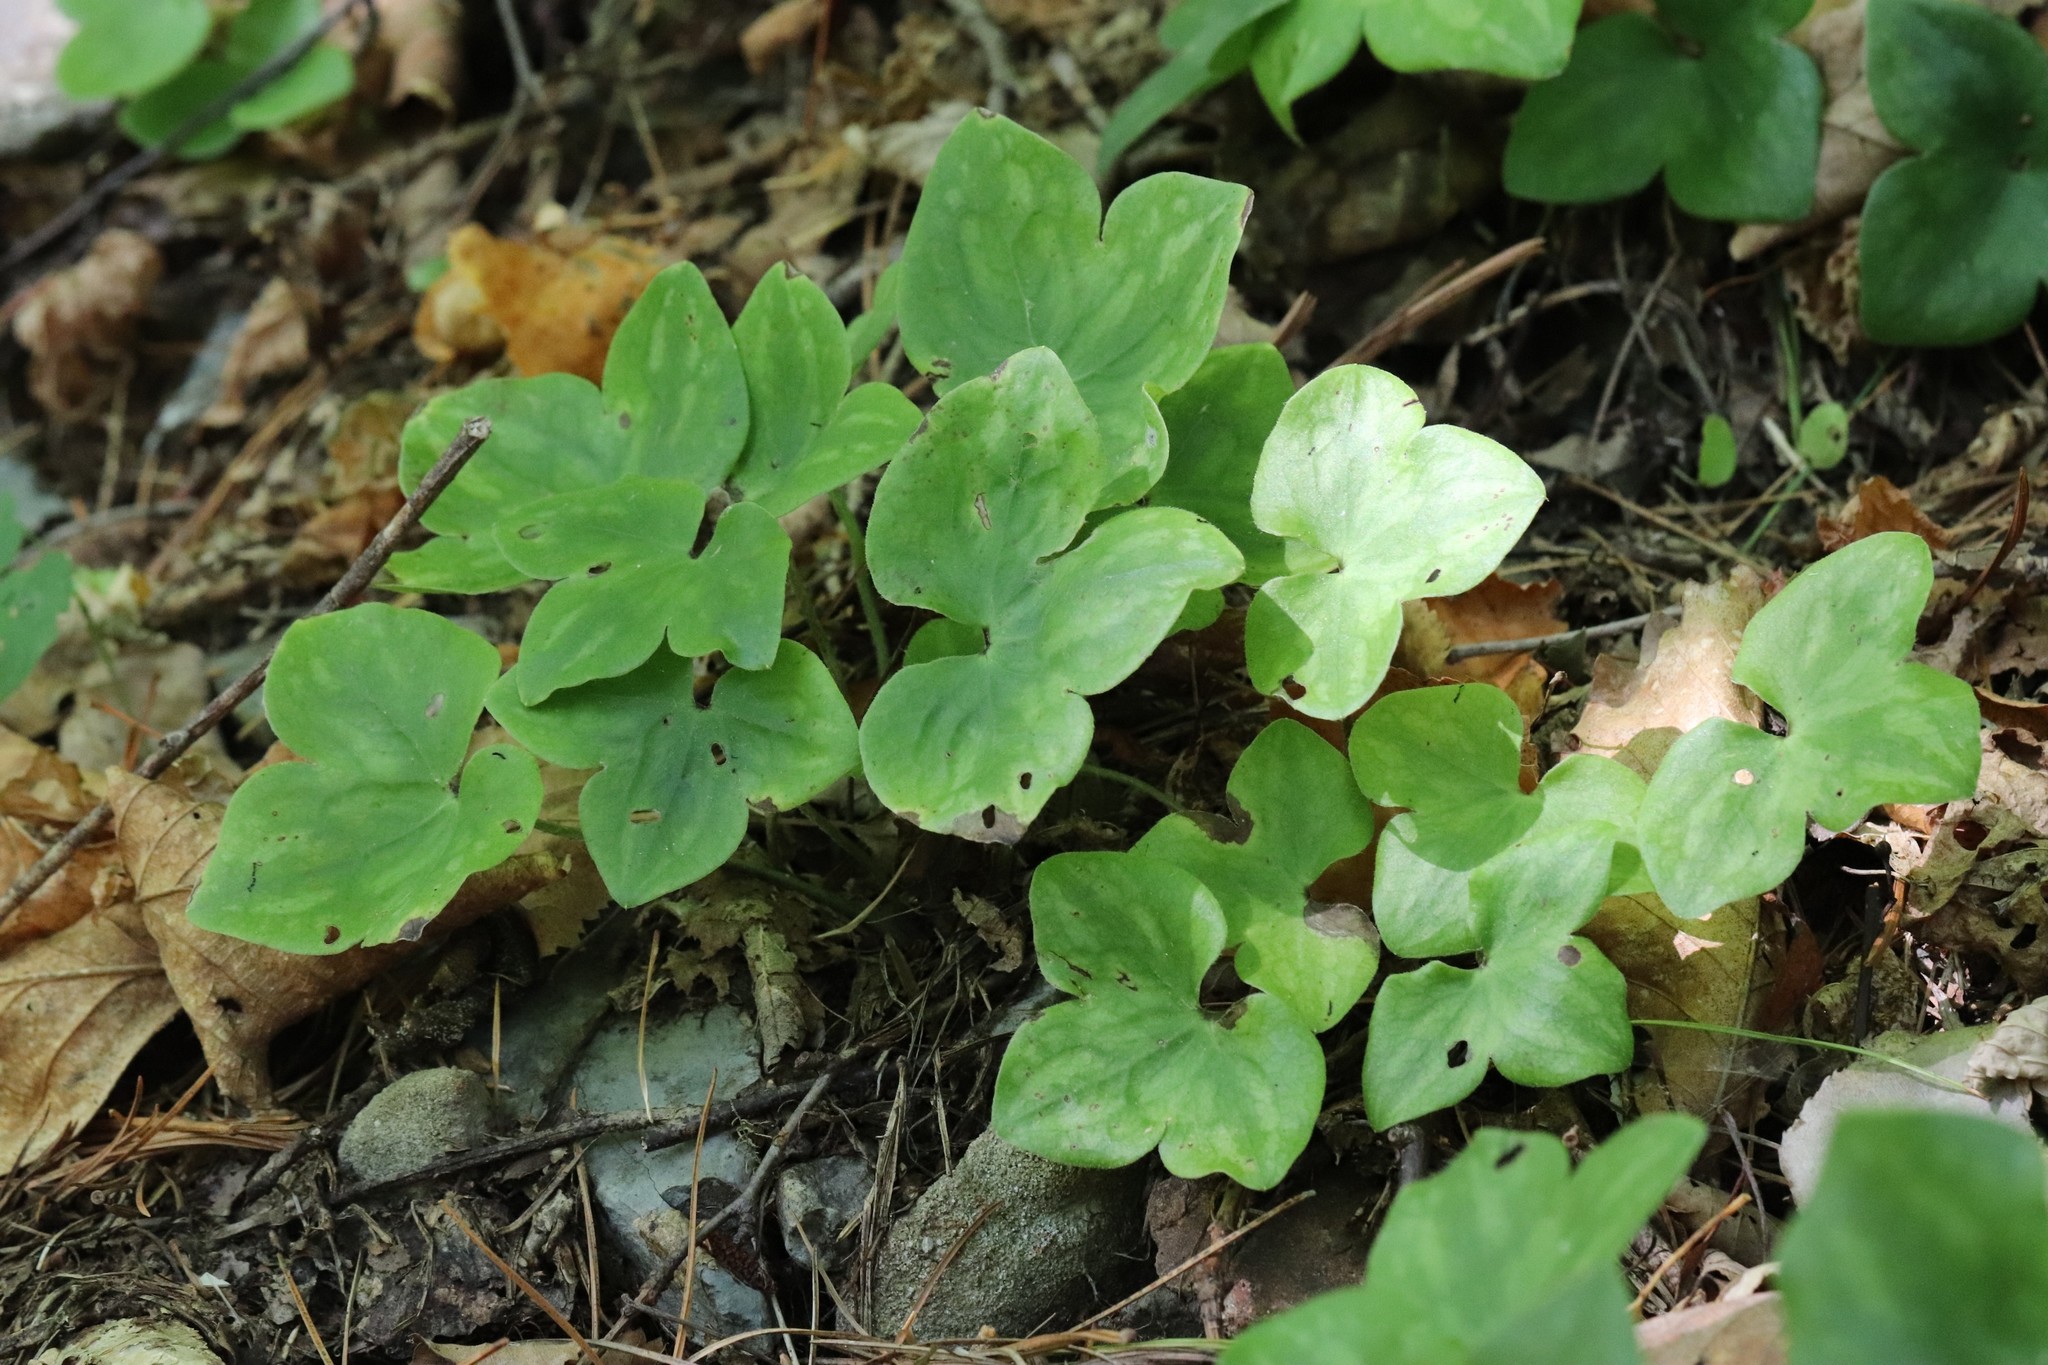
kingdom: Plantae
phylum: Tracheophyta
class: Magnoliopsida
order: Ranunculales
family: Ranunculaceae
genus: Hepatica
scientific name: Hepatica asiatica
